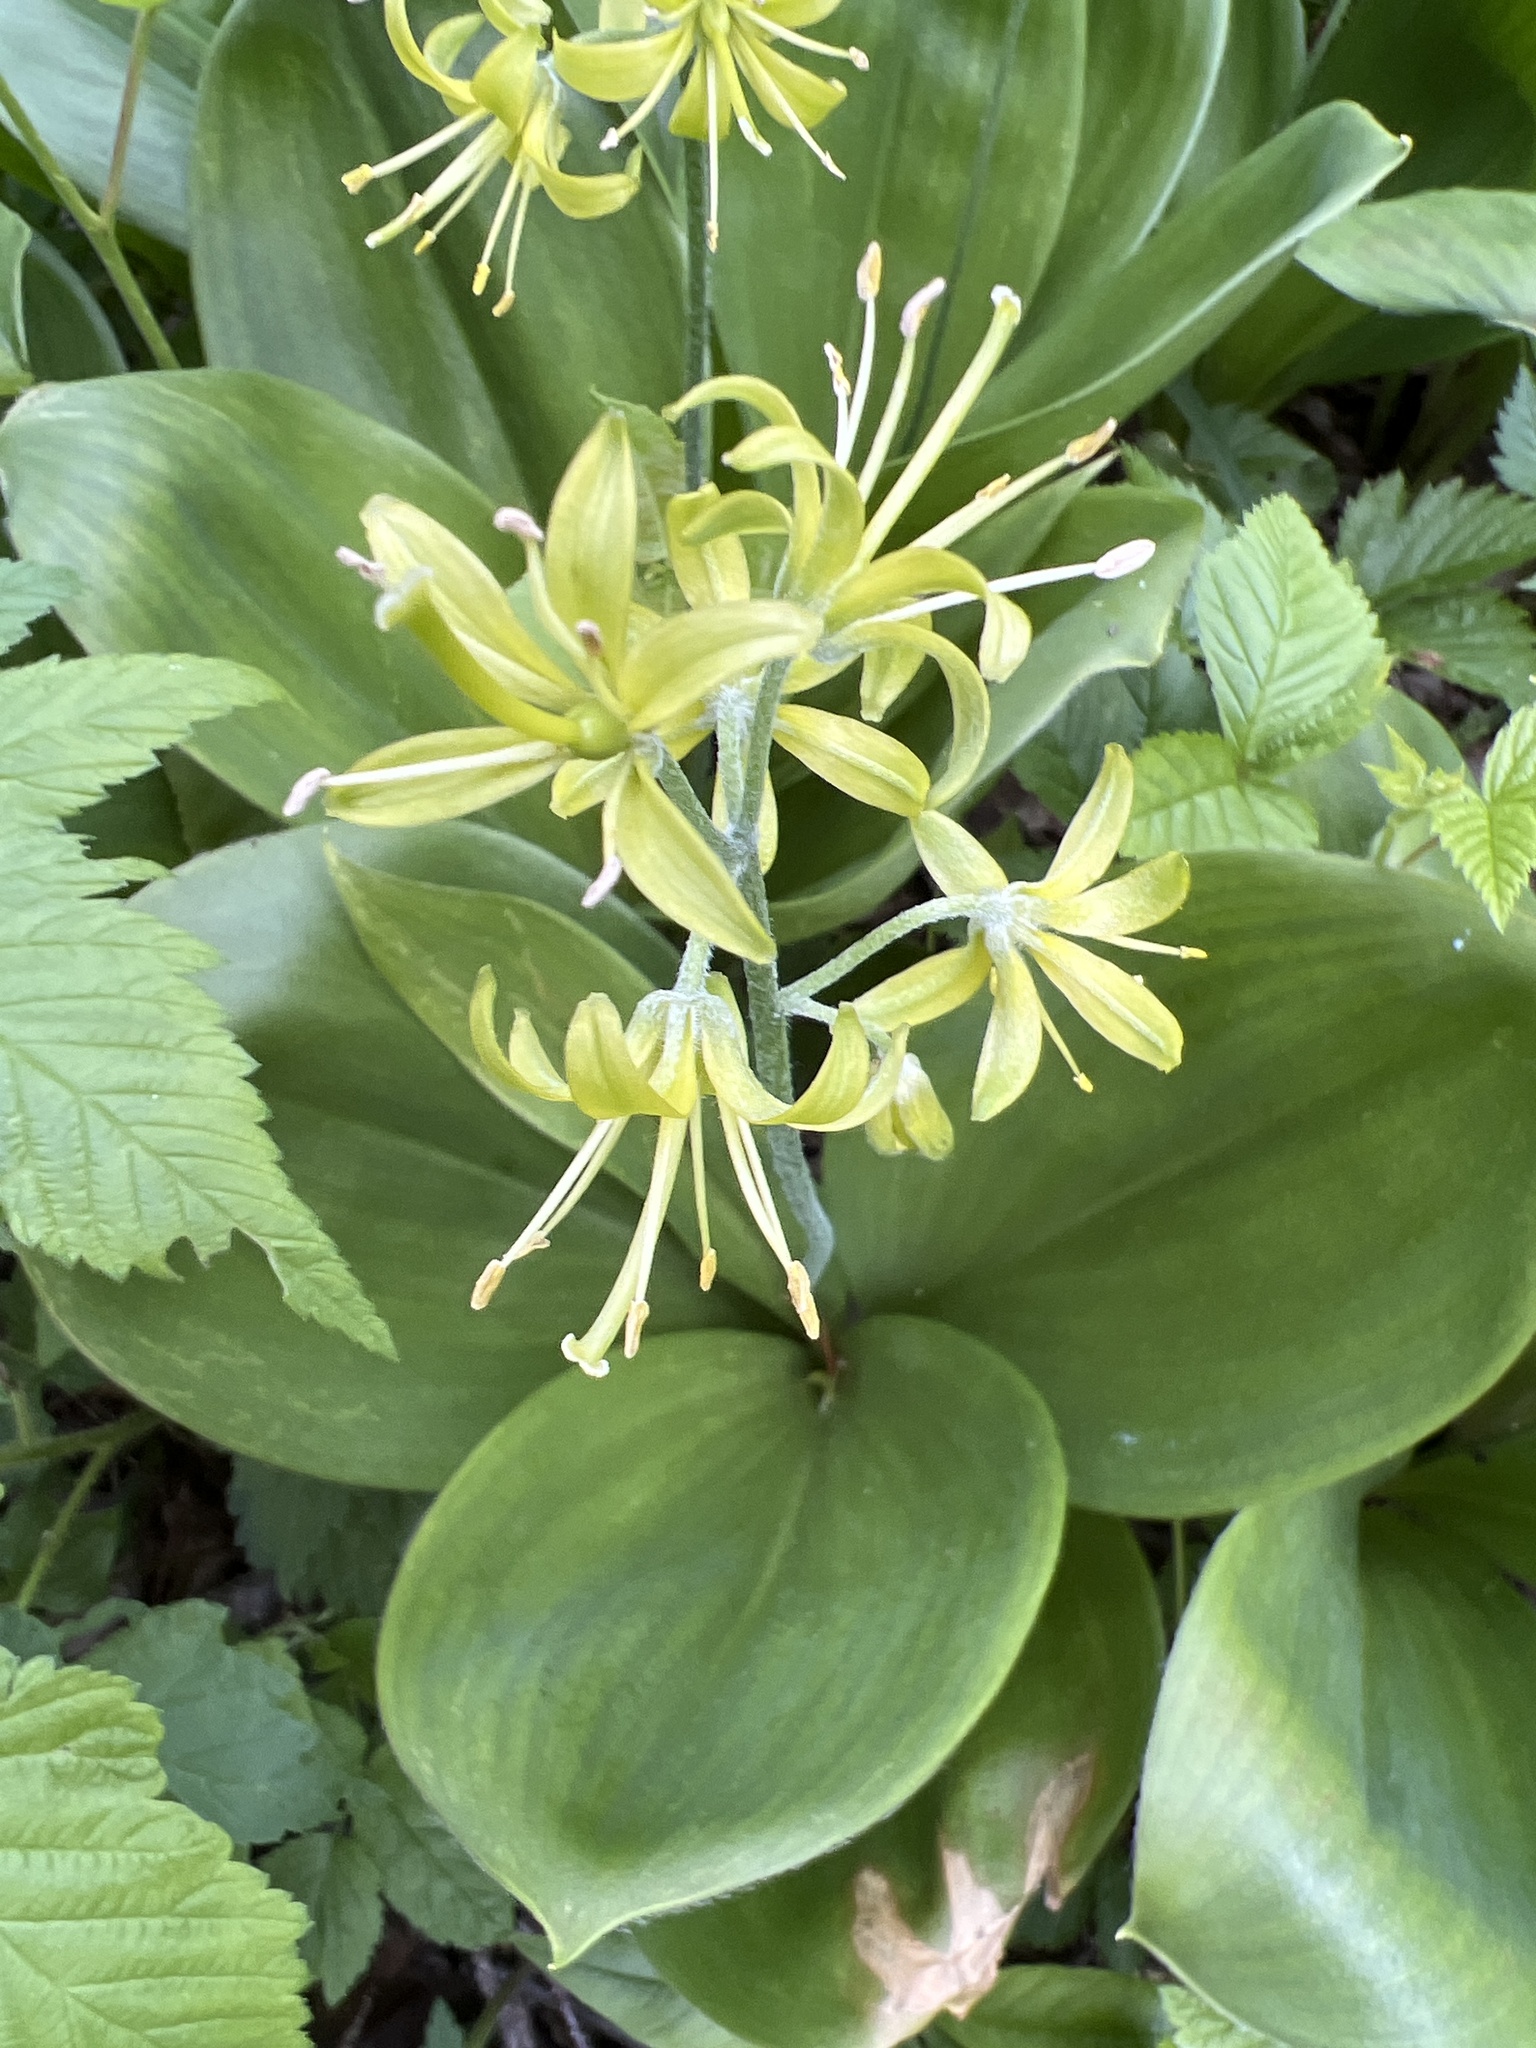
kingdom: Plantae
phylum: Tracheophyta
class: Liliopsida
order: Liliales
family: Liliaceae
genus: Clintonia
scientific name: Clintonia borealis
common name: Yellow clintonia
